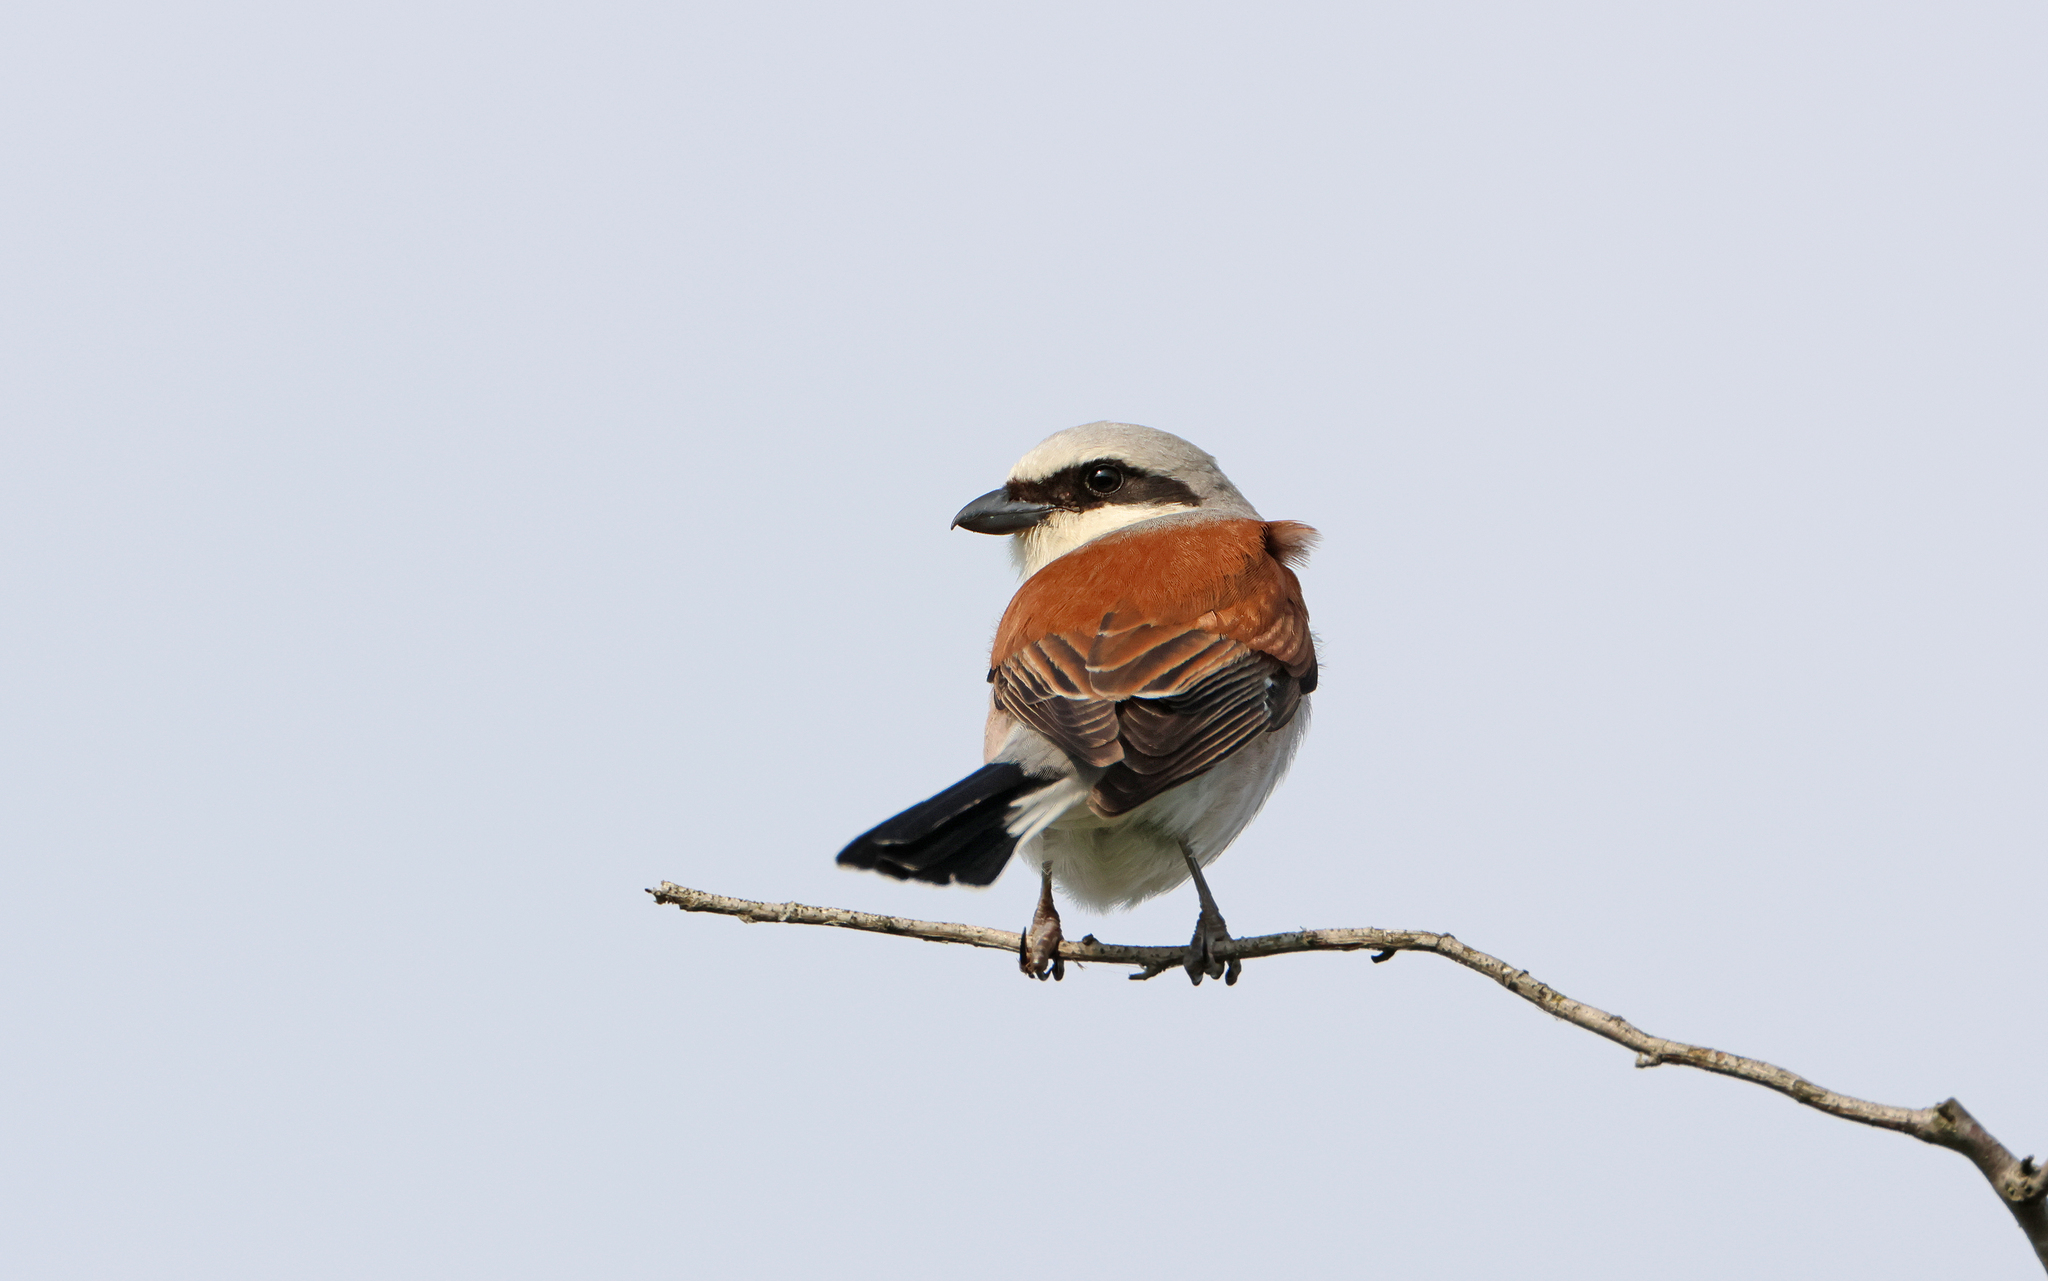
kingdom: Animalia
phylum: Chordata
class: Aves
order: Passeriformes
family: Laniidae
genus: Lanius
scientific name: Lanius collurio
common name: Red-backed shrike
